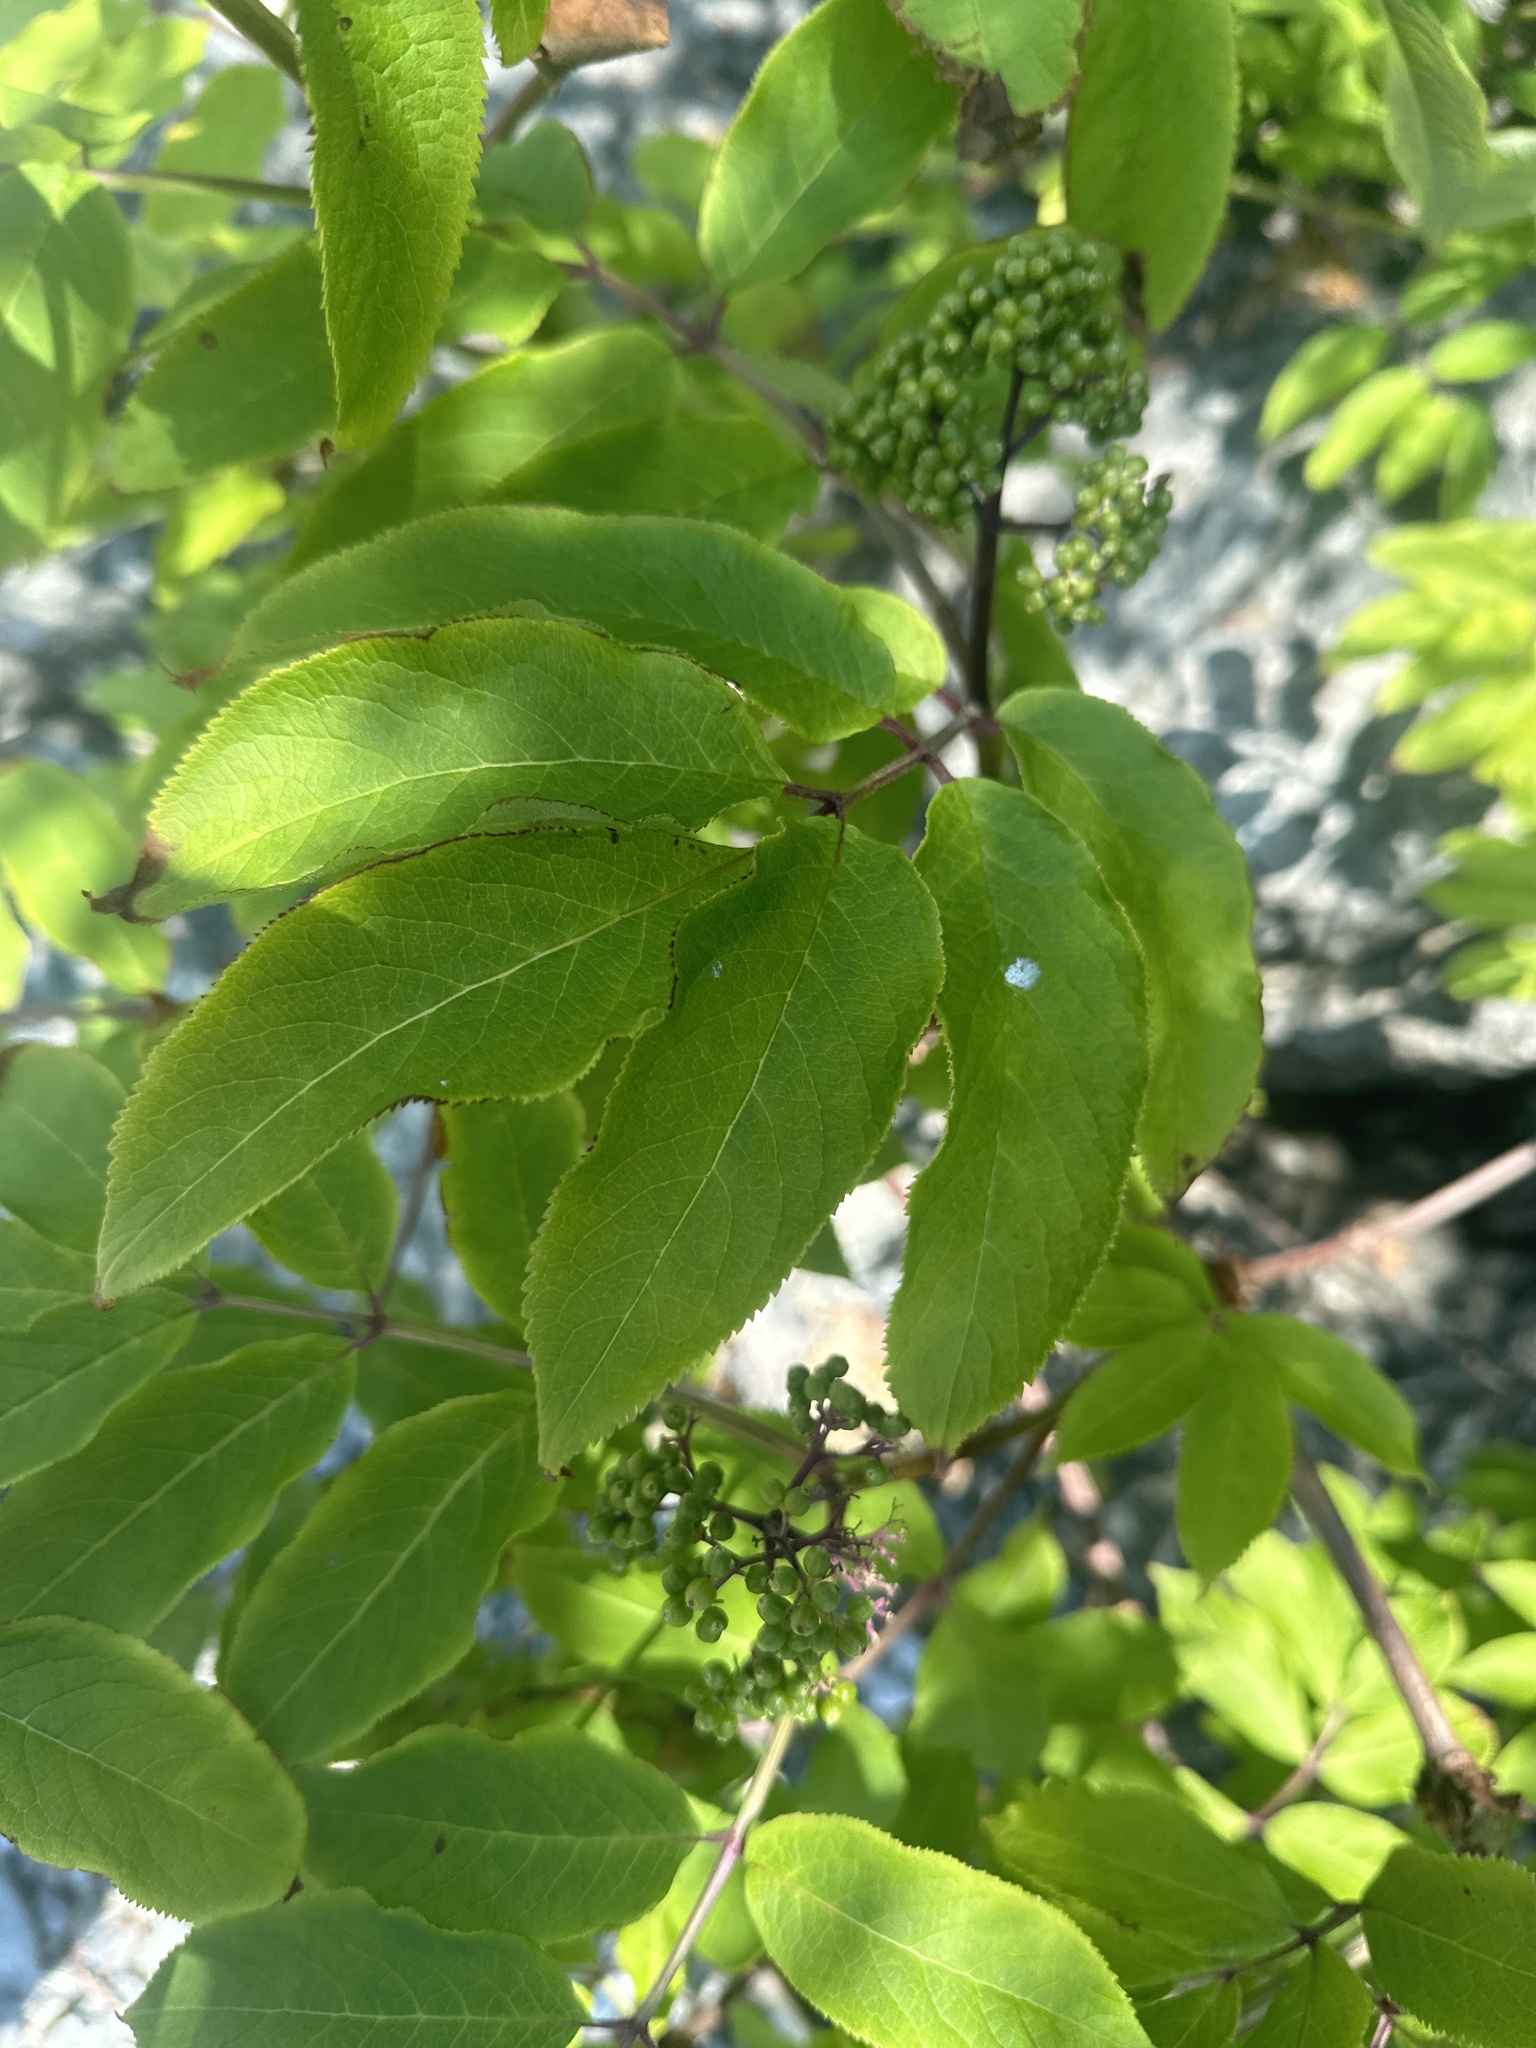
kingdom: Plantae
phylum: Tracheophyta
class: Magnoliopsida
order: Dipsacales
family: Viburnaceae
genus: Sambucus
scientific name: Sambucus racemosa
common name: Red-berried elder
